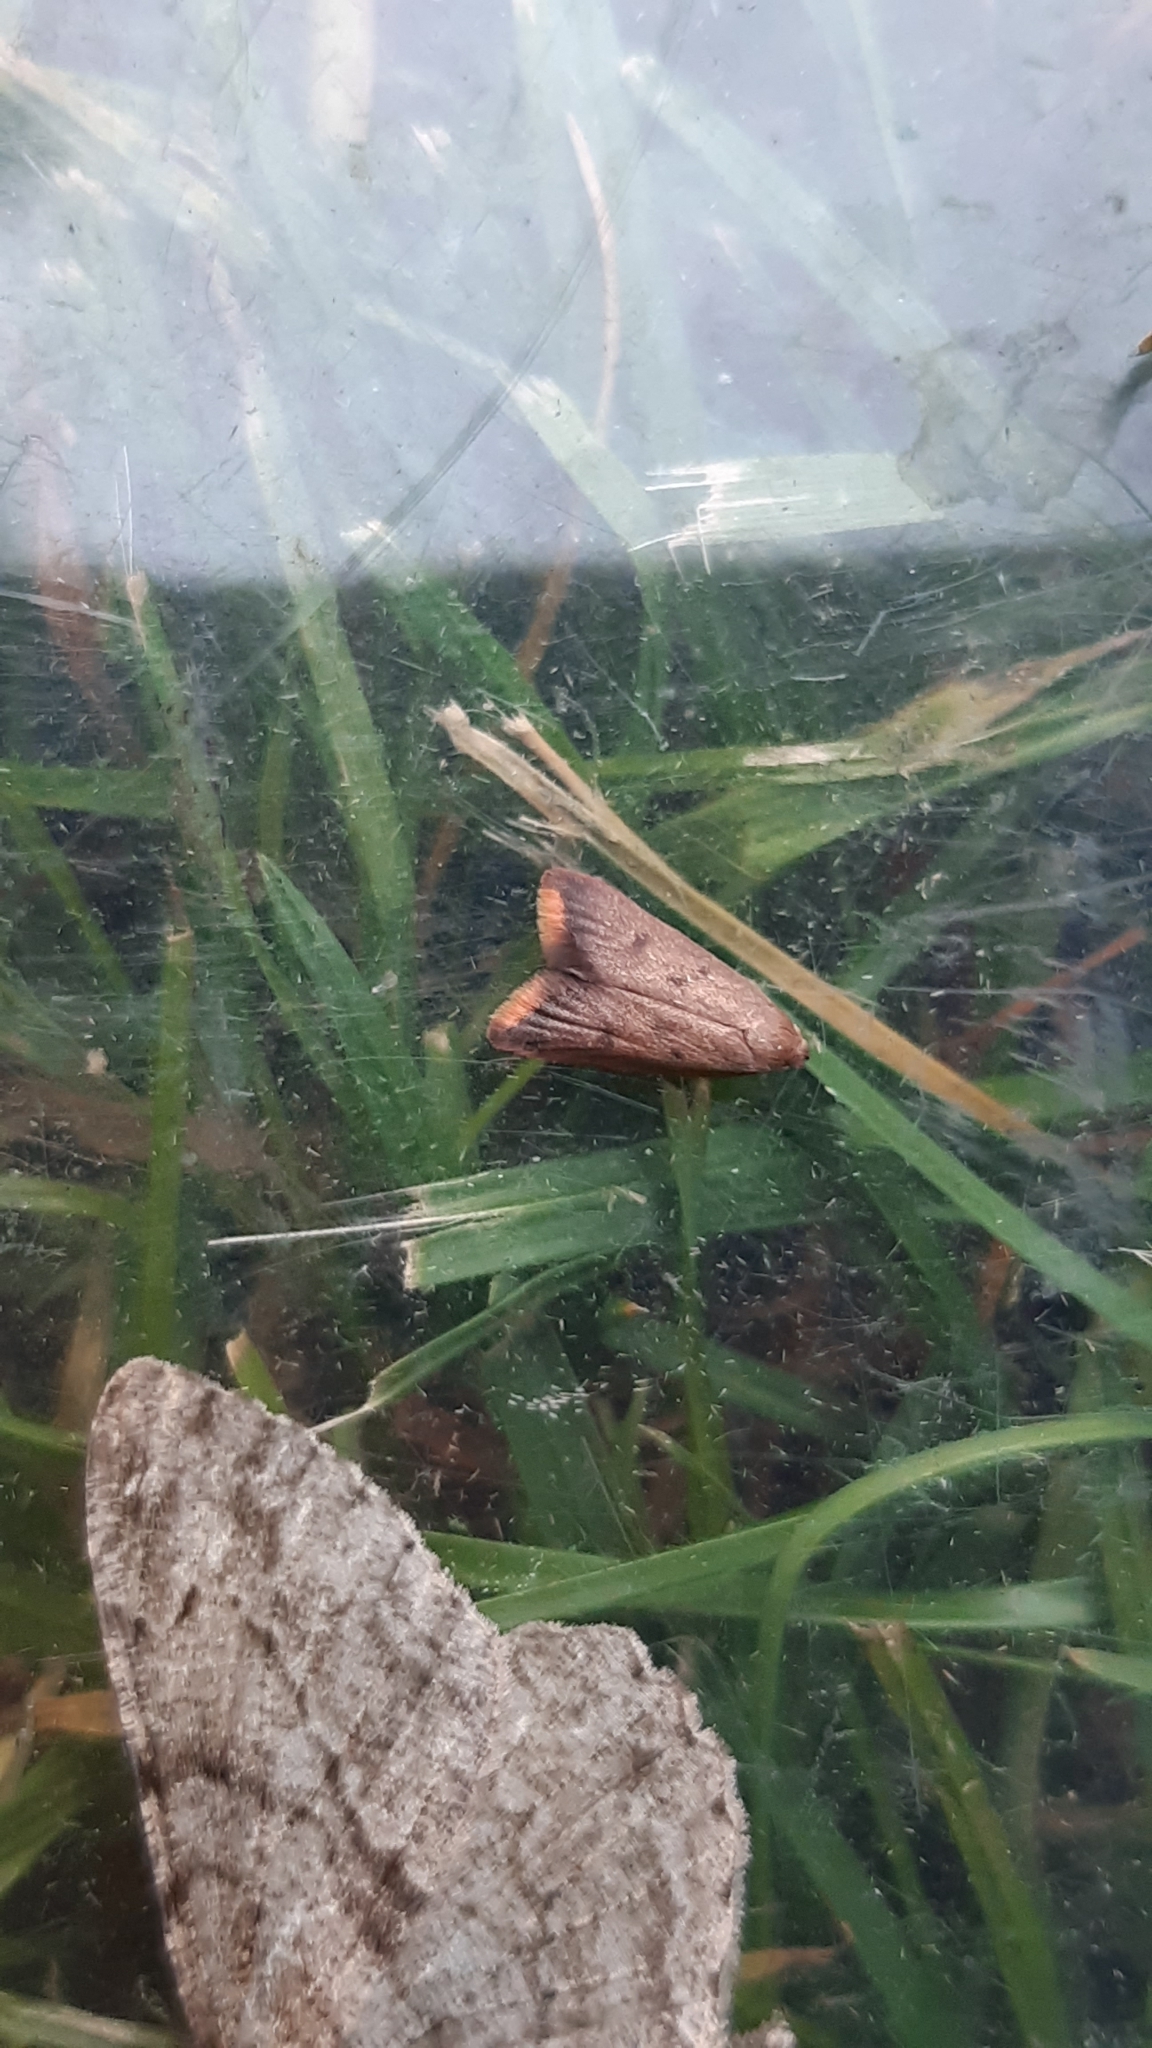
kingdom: Animalia
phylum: Arthropoda
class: Insecta
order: Lepidoptera
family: Oecophoridae
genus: Tachystola
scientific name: Tachystola acroxantha
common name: Ruddy streak
